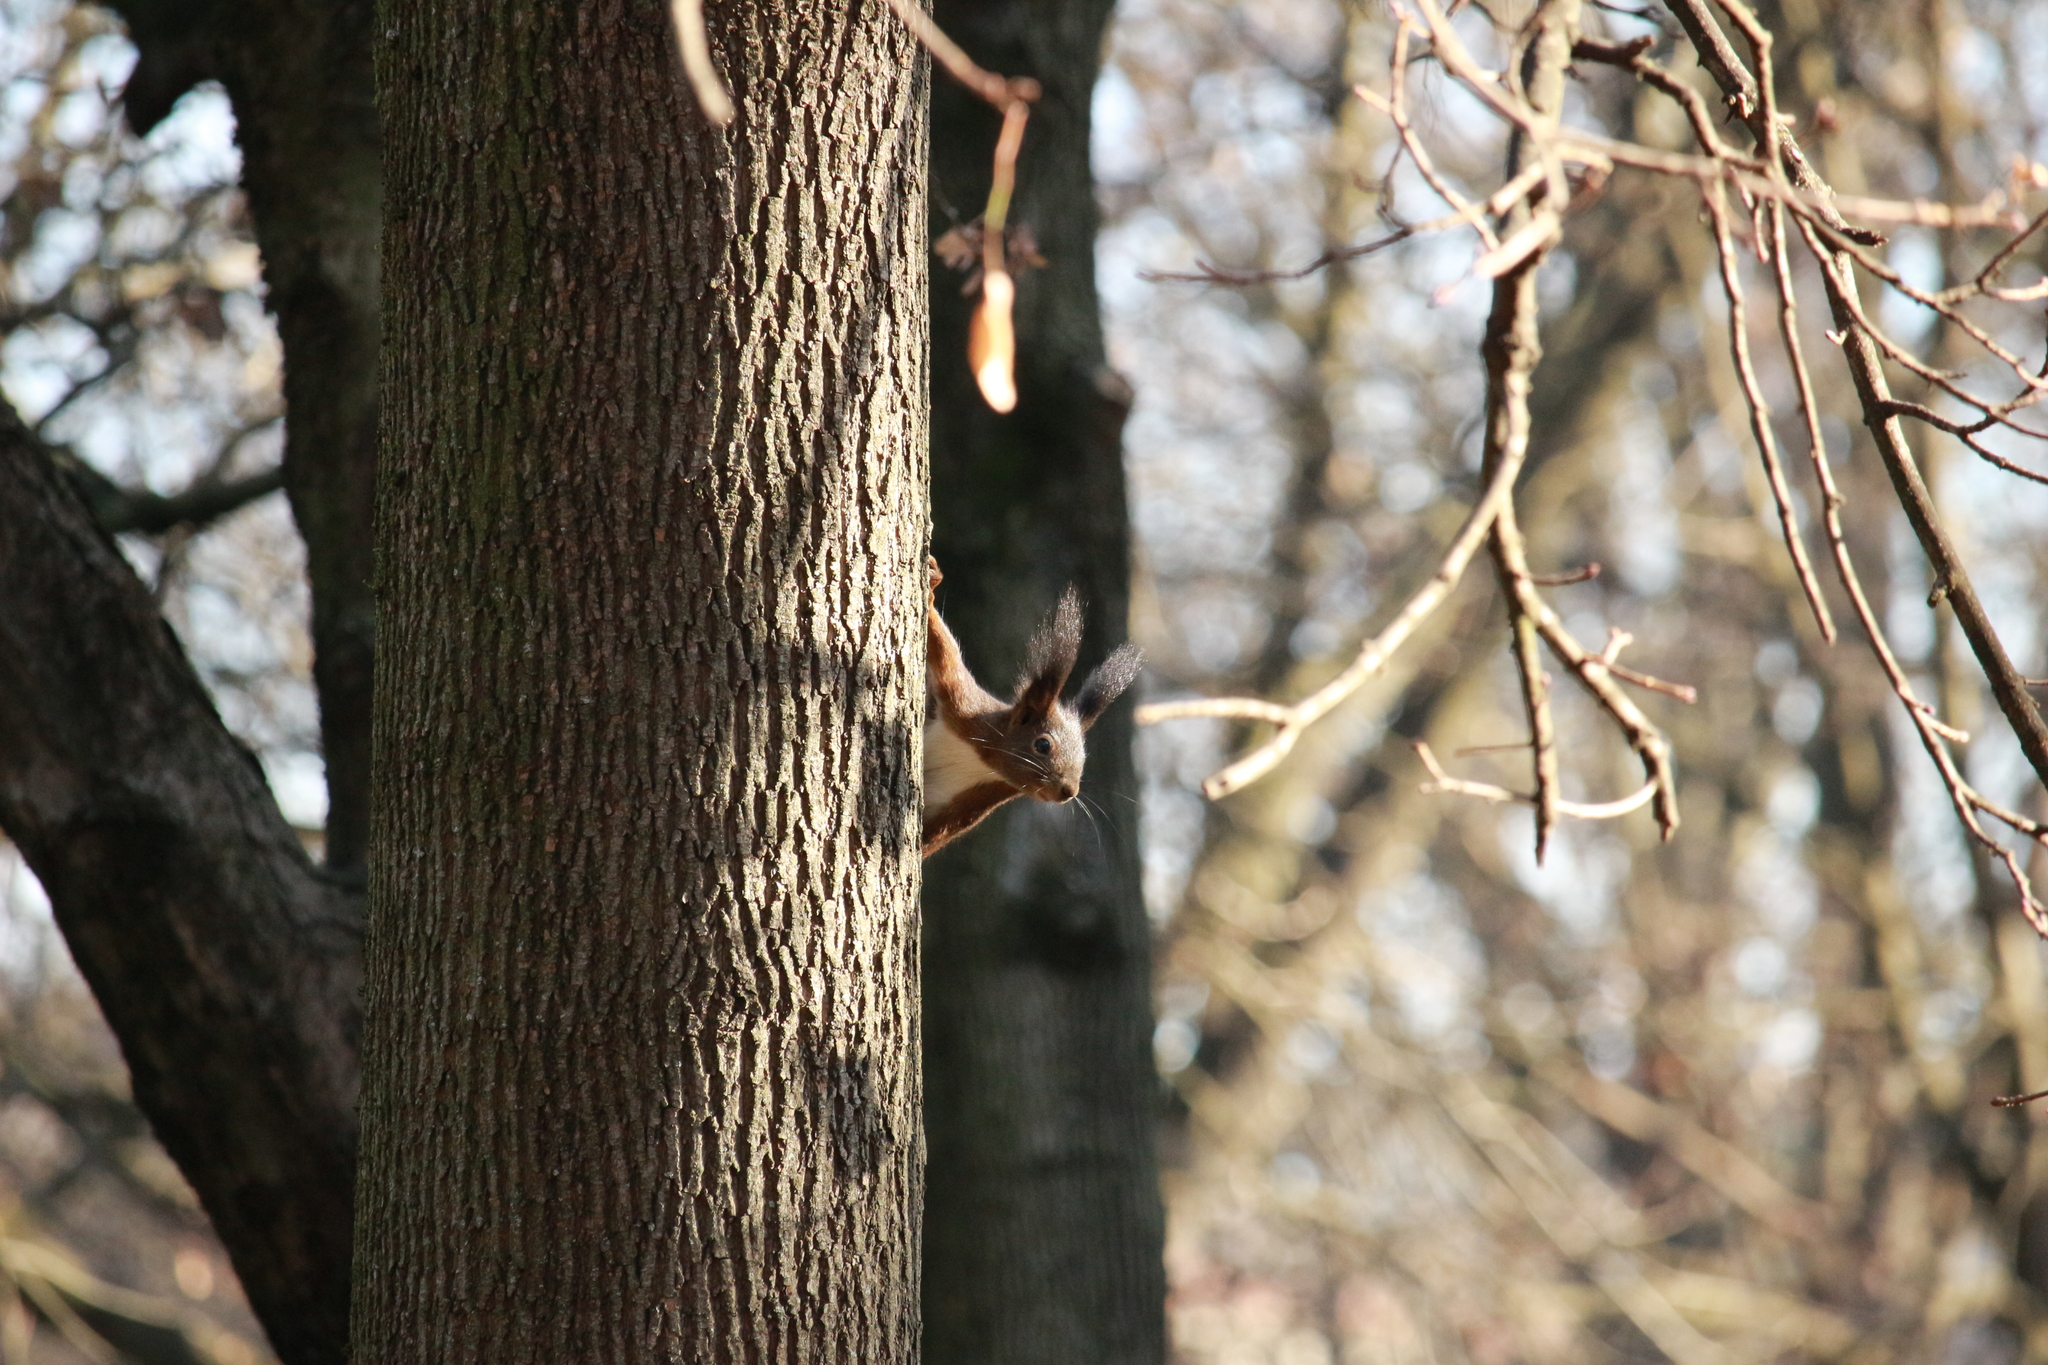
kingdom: Animalia
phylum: Chordata
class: Mammalia
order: Rodentia
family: Sciuridae
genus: Sciurus
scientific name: Sciurus vulgaris
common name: Eurasian red squirrel
